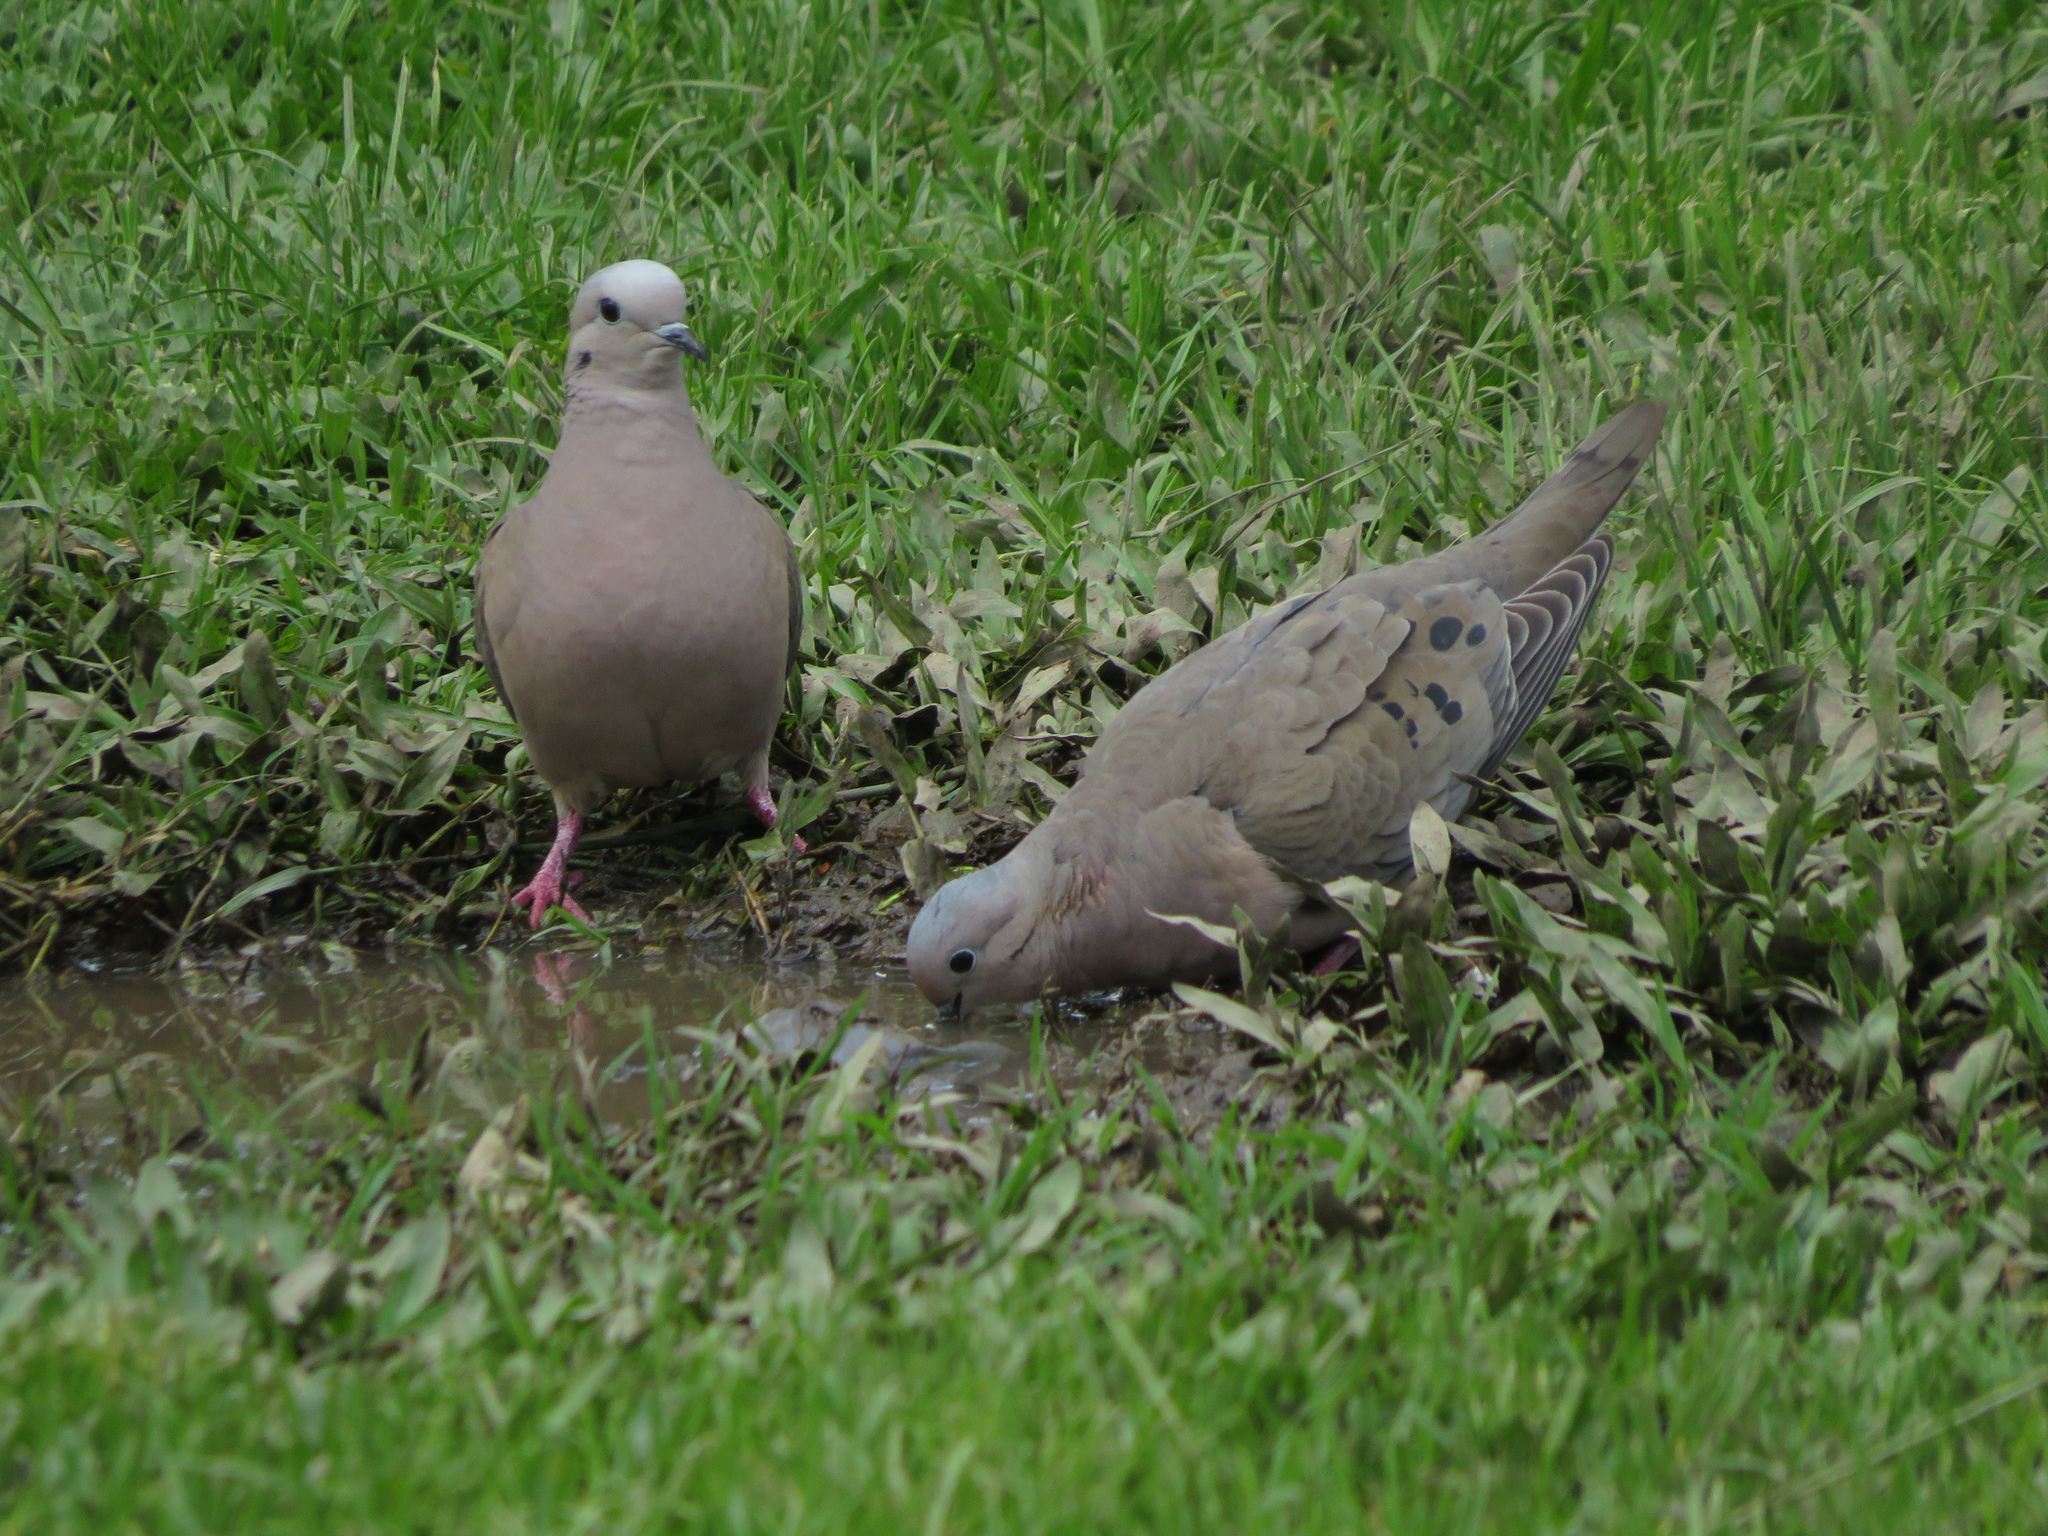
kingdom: Animalia
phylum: Chordata
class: Aves
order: Columbiformes
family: Columbidae
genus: Zenaida
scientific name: Zenaida auriculata
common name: Eared dove
